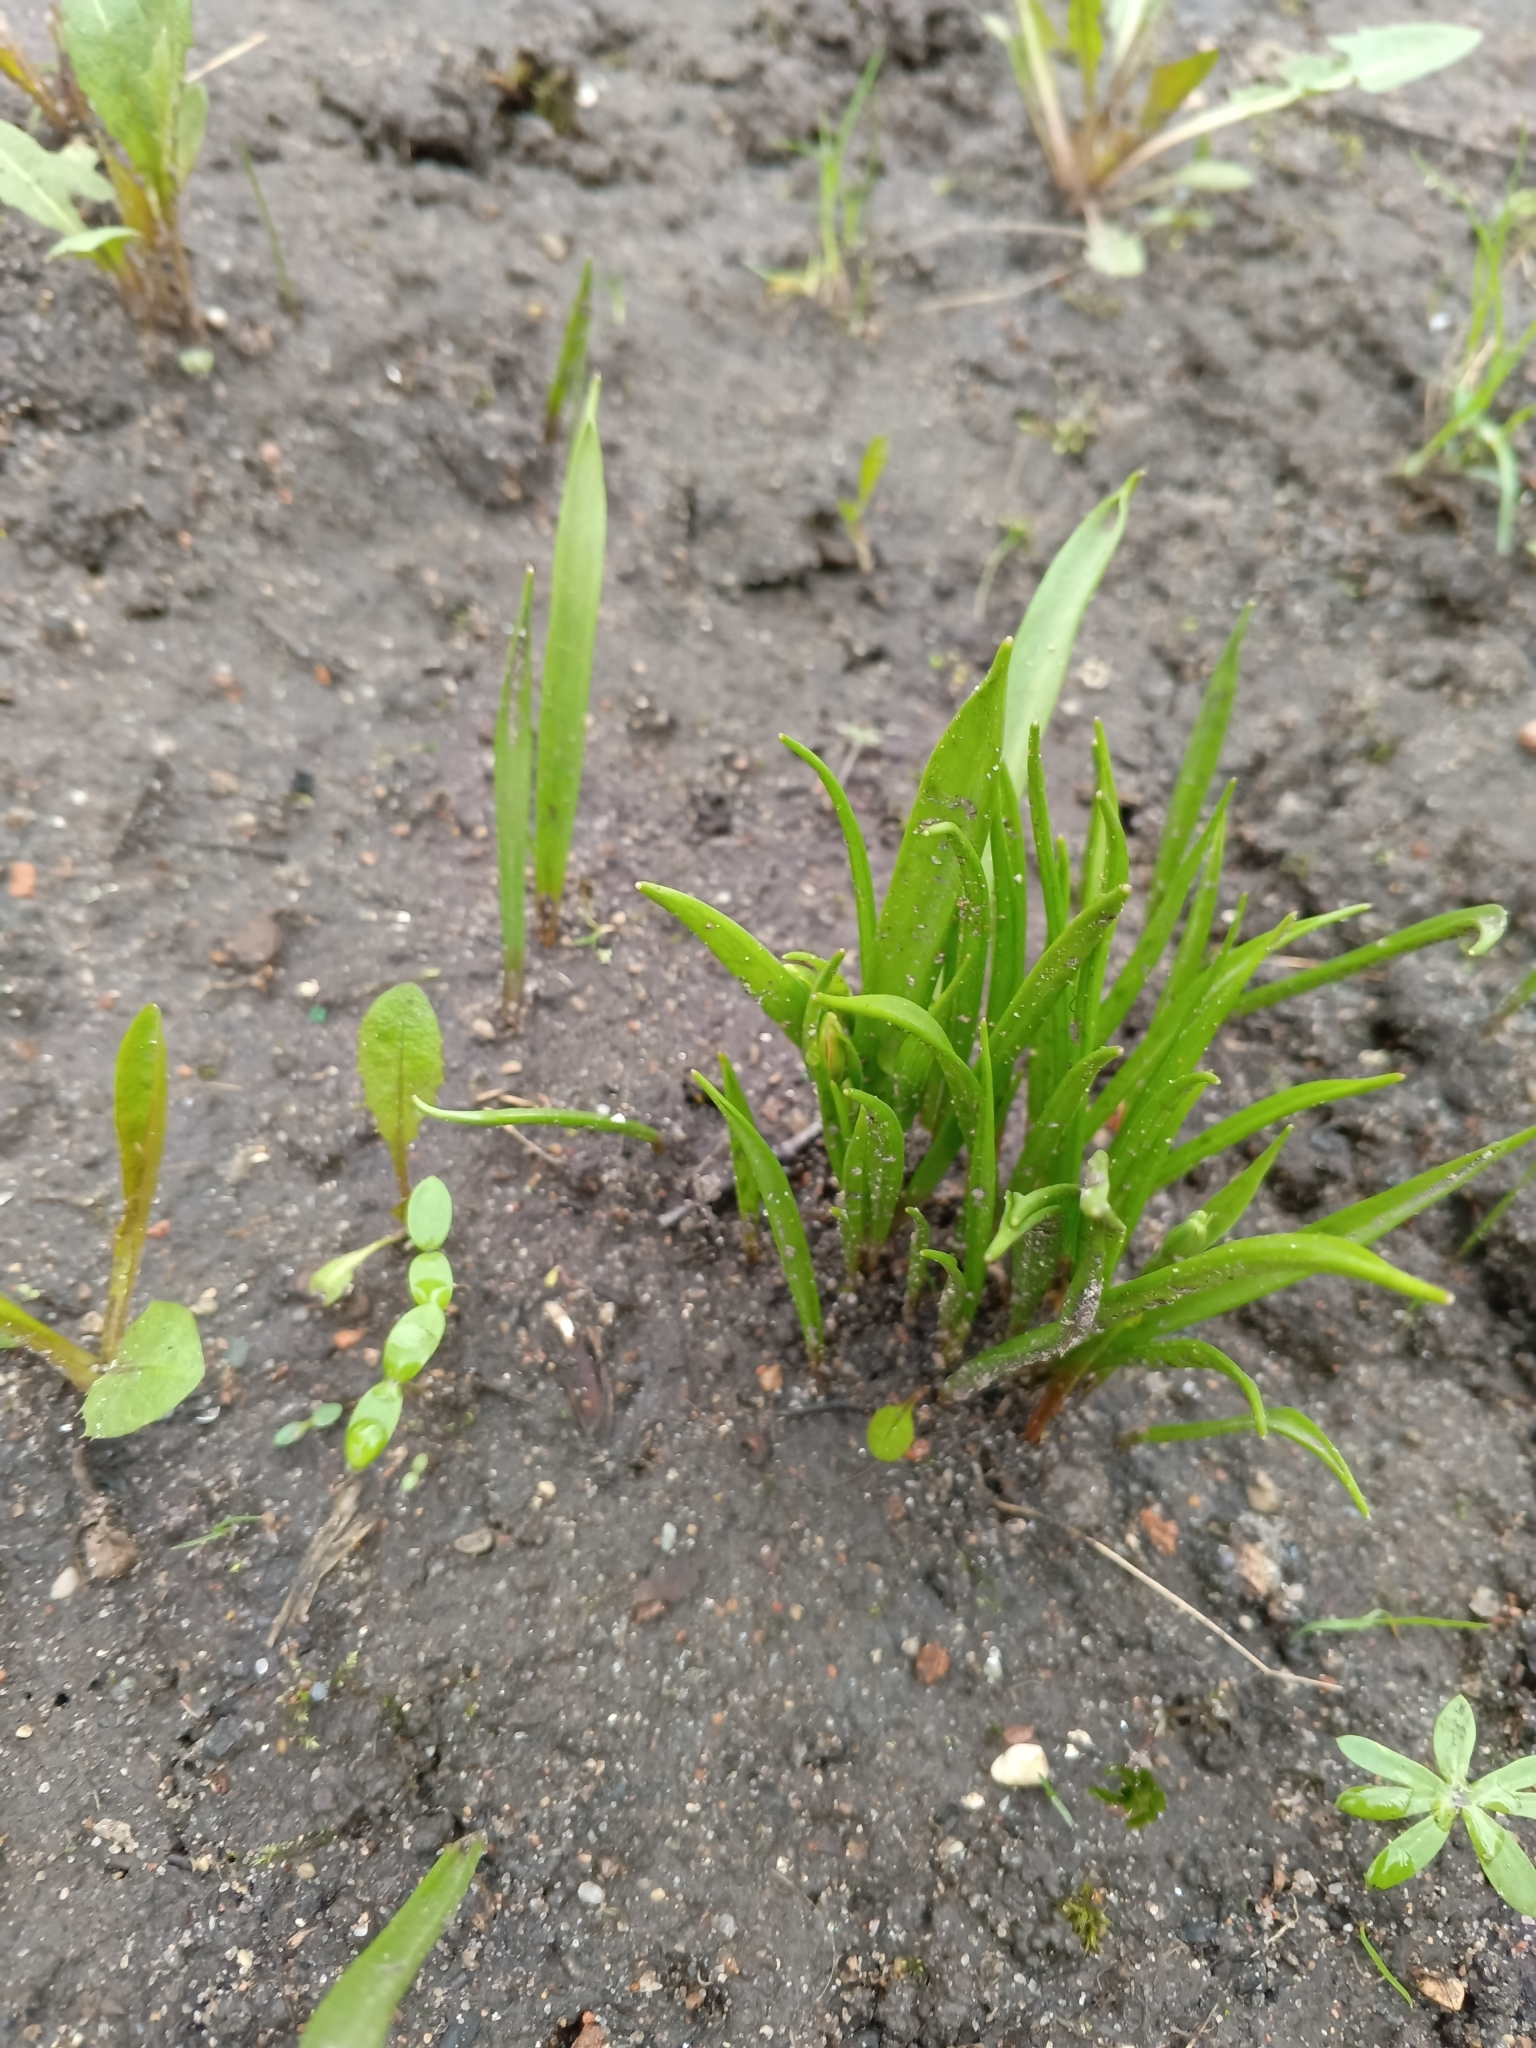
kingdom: Plantae
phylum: Tracheophyta
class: Liliopsida
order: Liliales
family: Liliaceae
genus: Gagea
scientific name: Gagea lutea
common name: Yellow star-of-bethlehem
